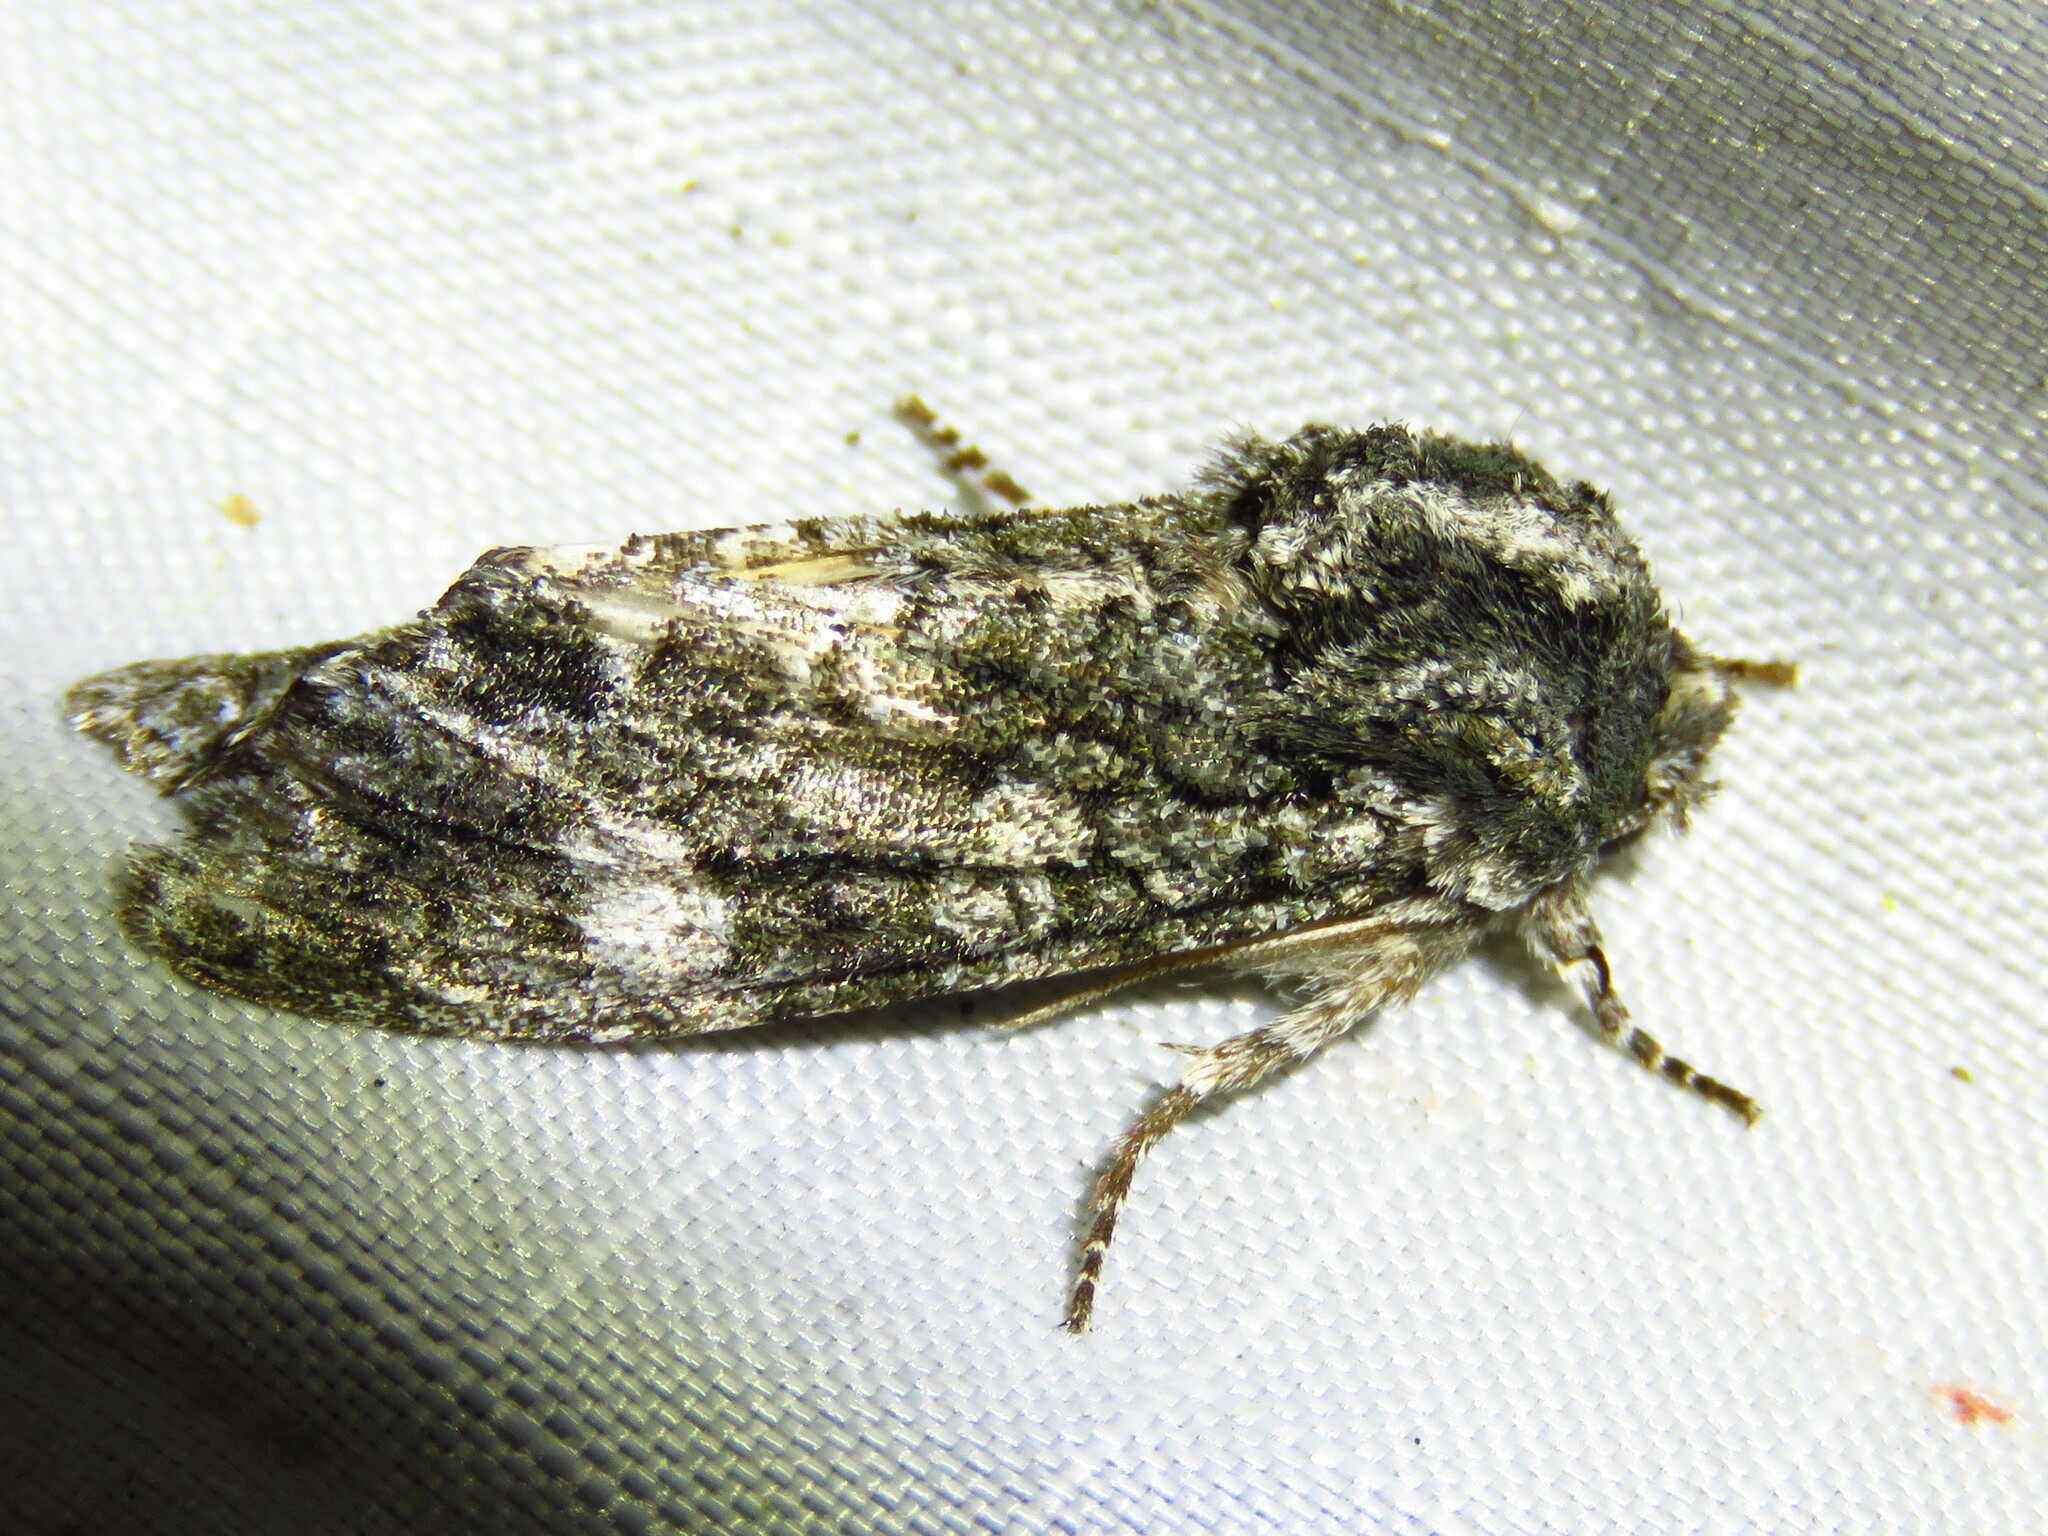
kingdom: Animalia
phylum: Arthropoda
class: Insecta
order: Lepidoptera
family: Noctuidae
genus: Psaphida
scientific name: Psaphida grotei
